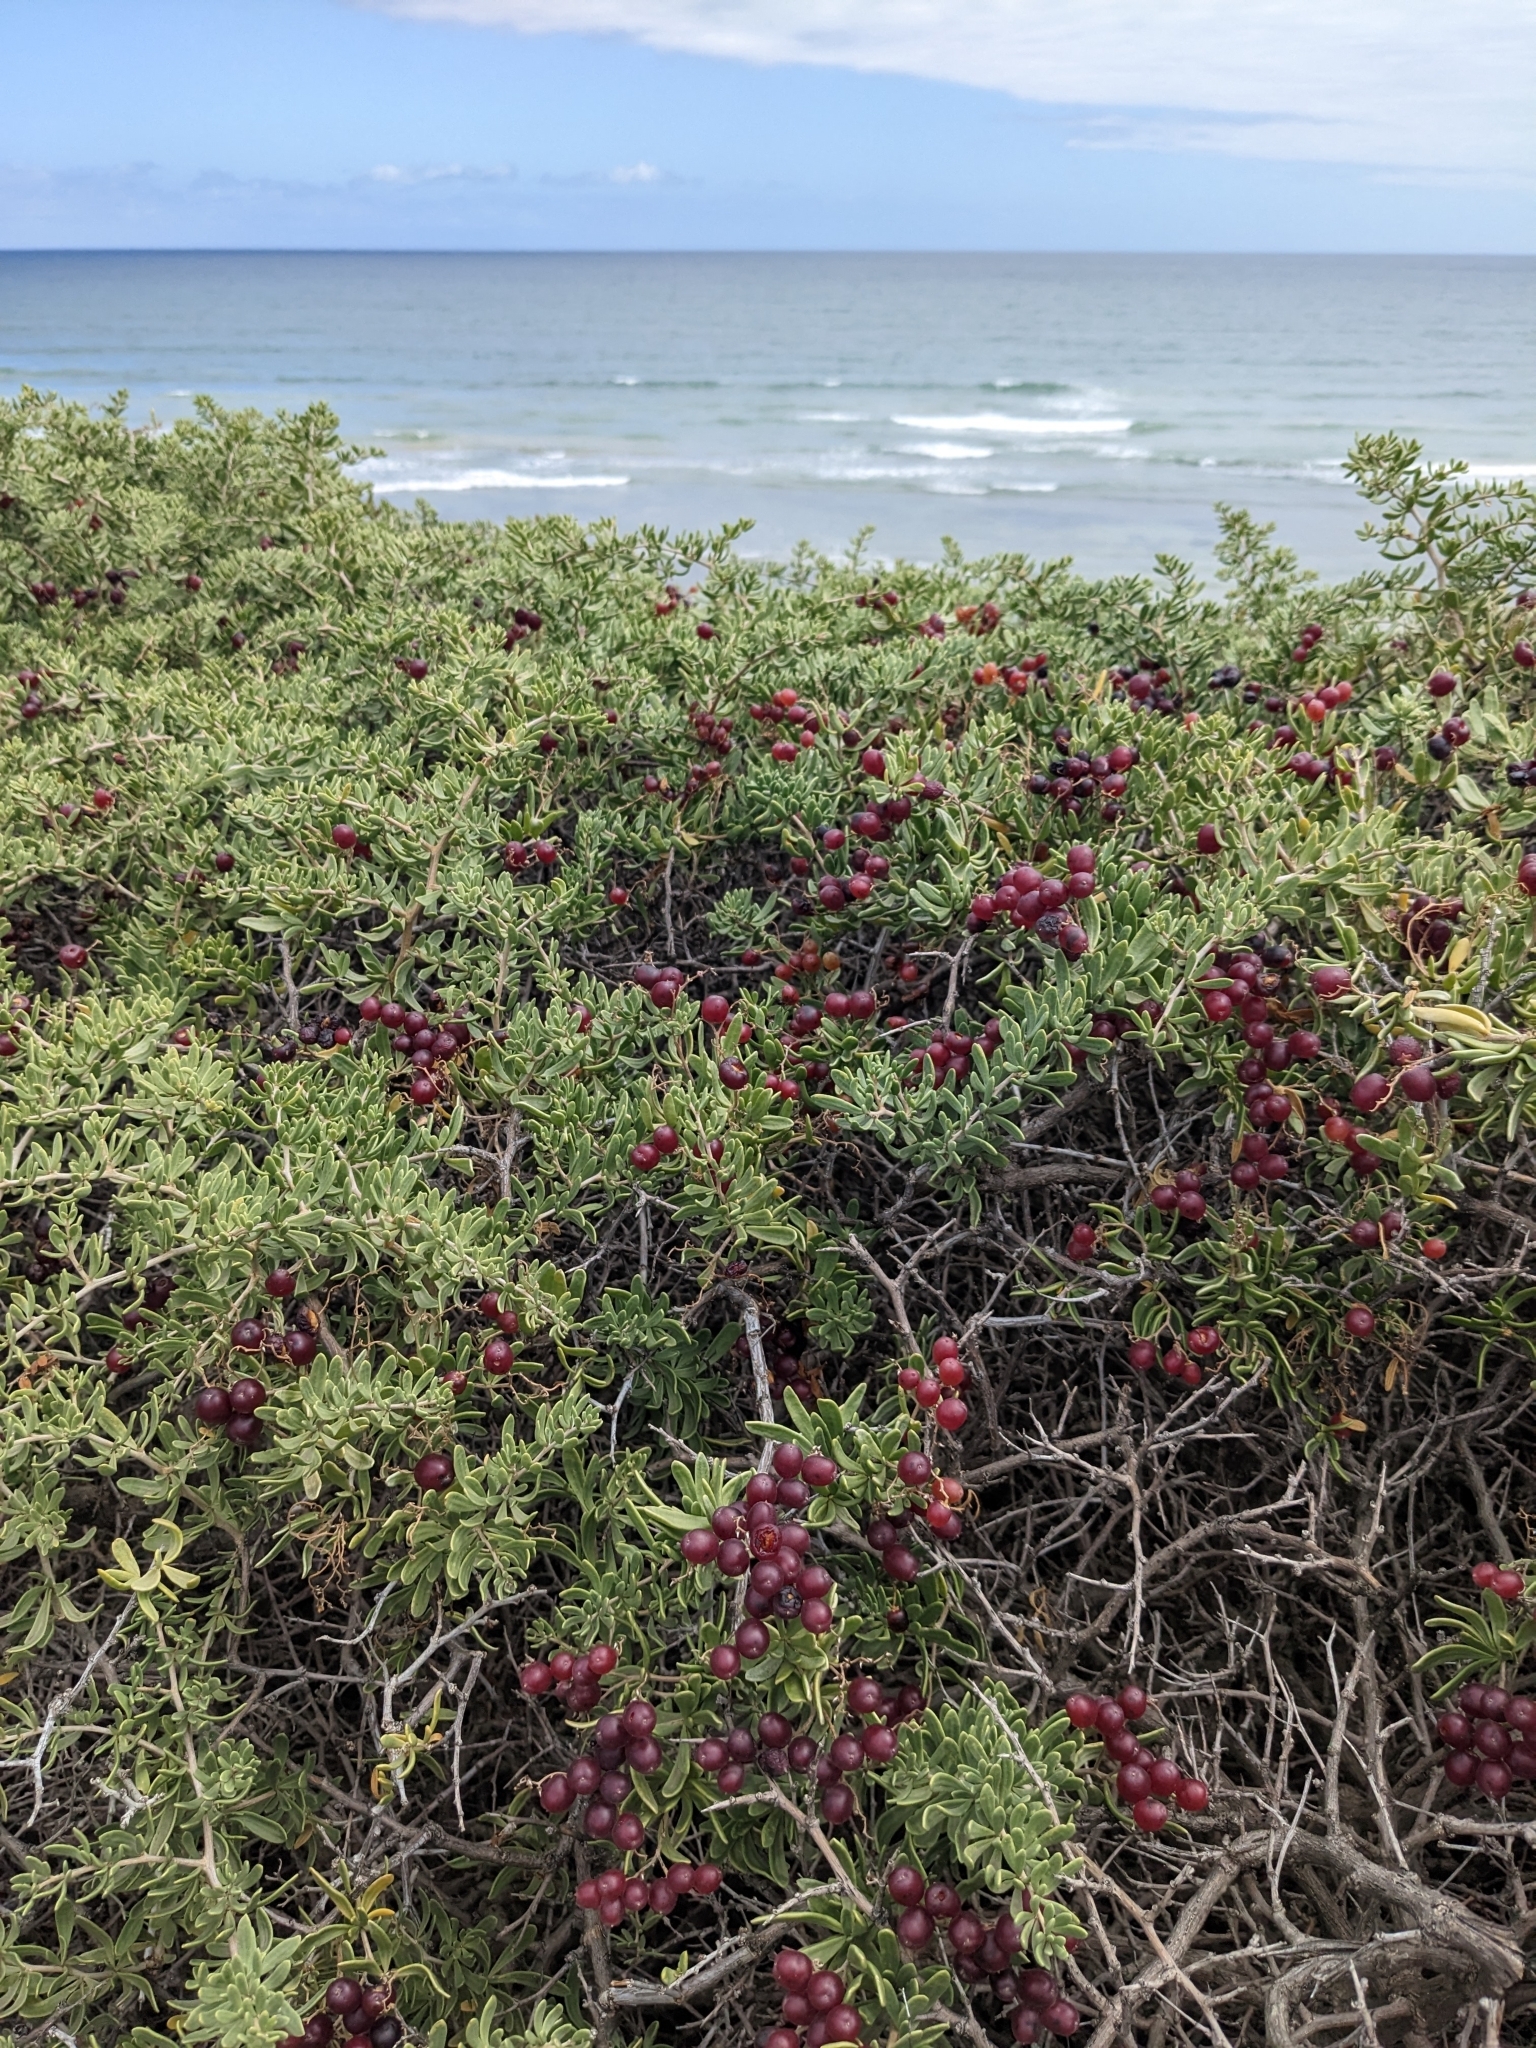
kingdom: Plantae
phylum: Tracheophyta
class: Magnoliopsida
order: Sapindales
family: Nitrariaceae
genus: Nitraria
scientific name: Nitraria billardierei
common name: Dillonbush
